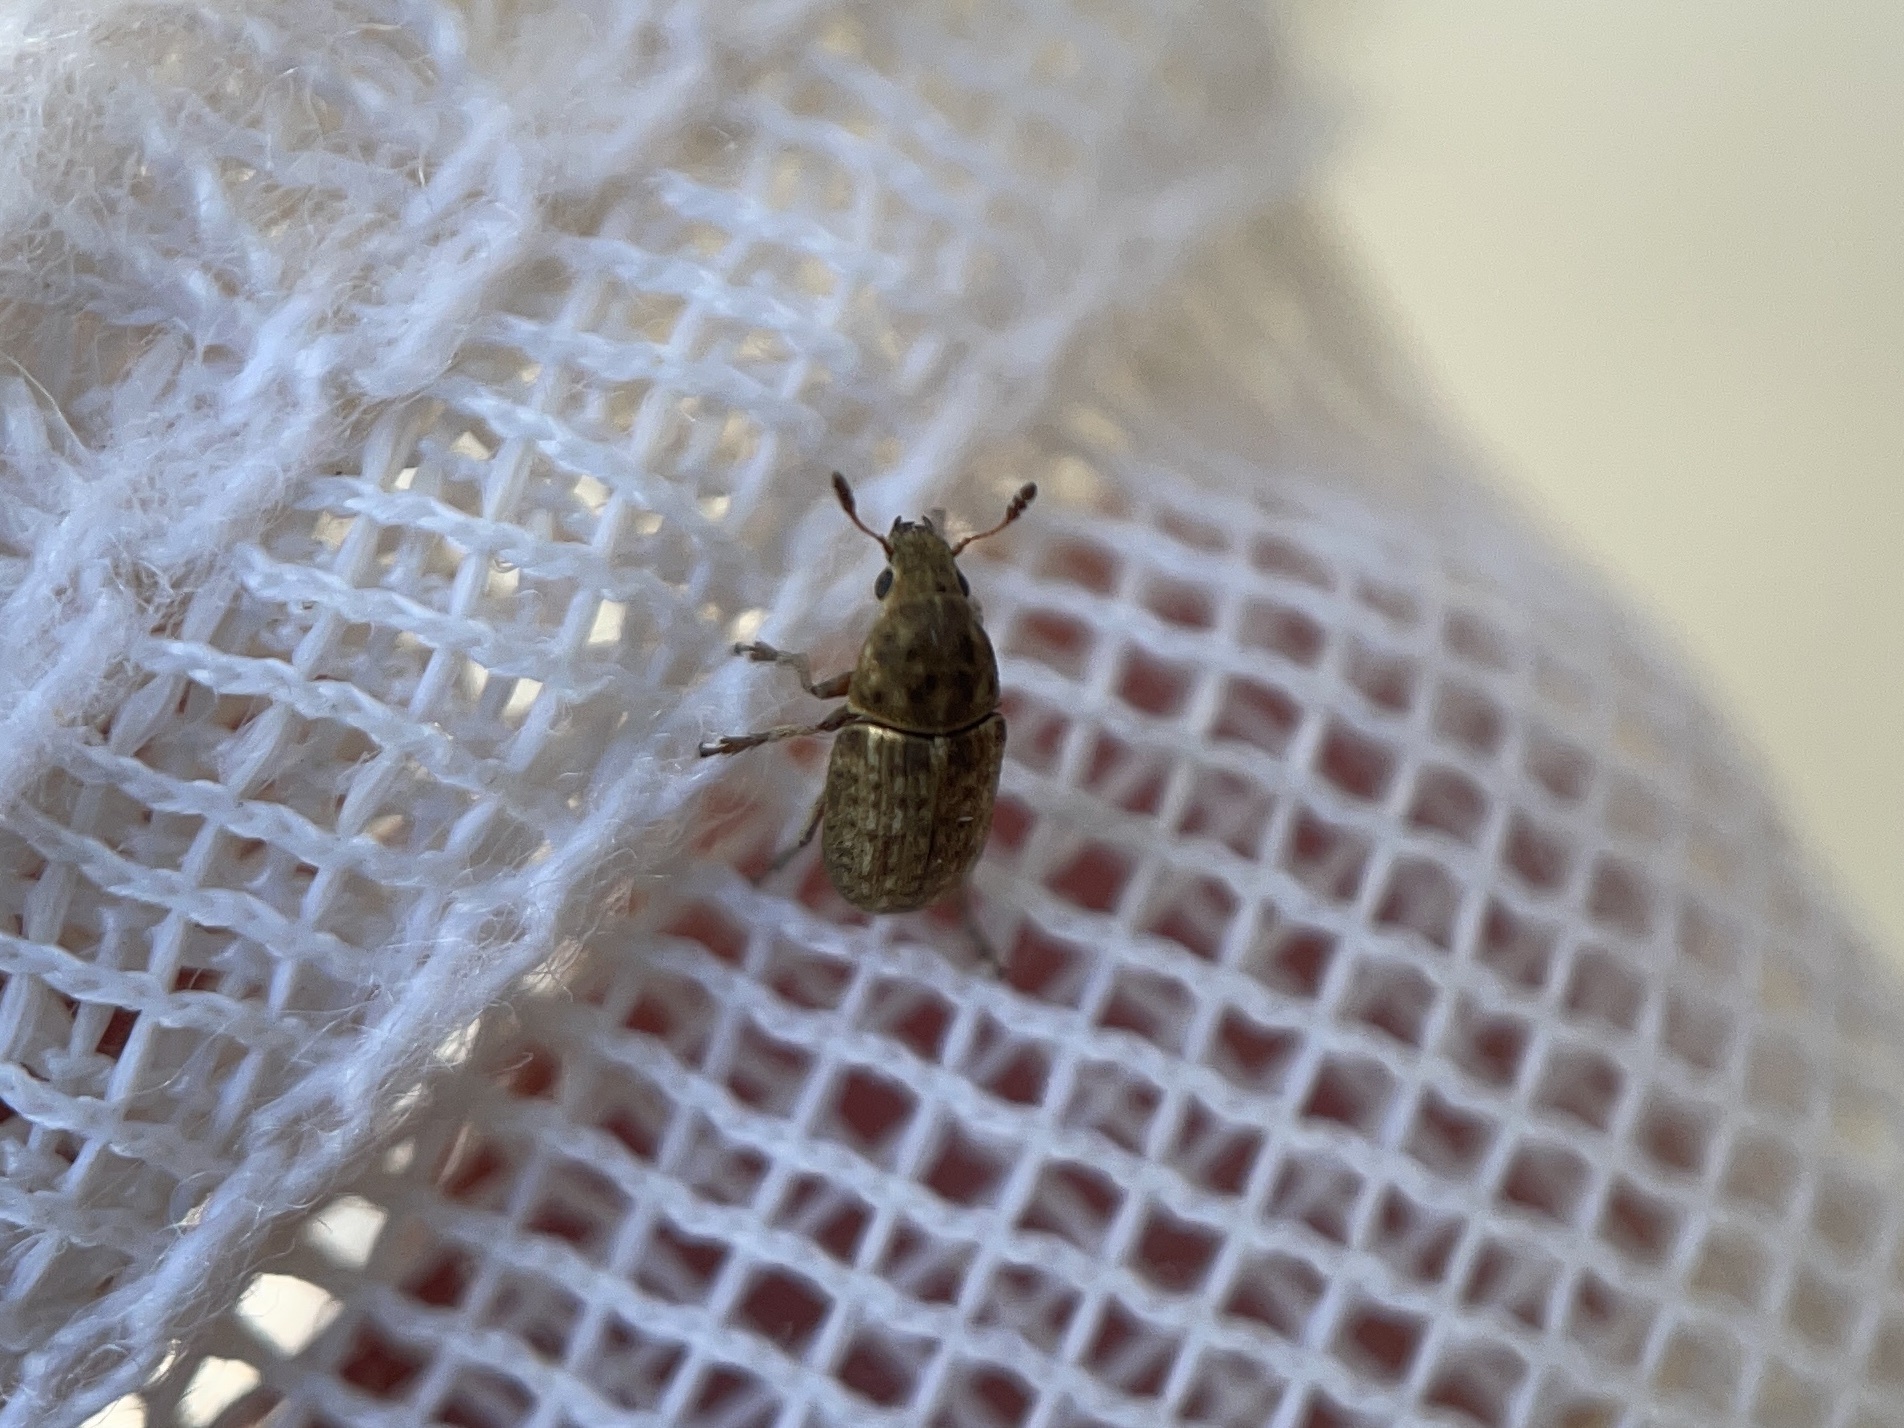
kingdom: Animalia
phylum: Arthropoda
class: Insecta
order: Coleoptera
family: Anthribidae
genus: Trigonorhinus
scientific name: Trigonorhinus limbatus
